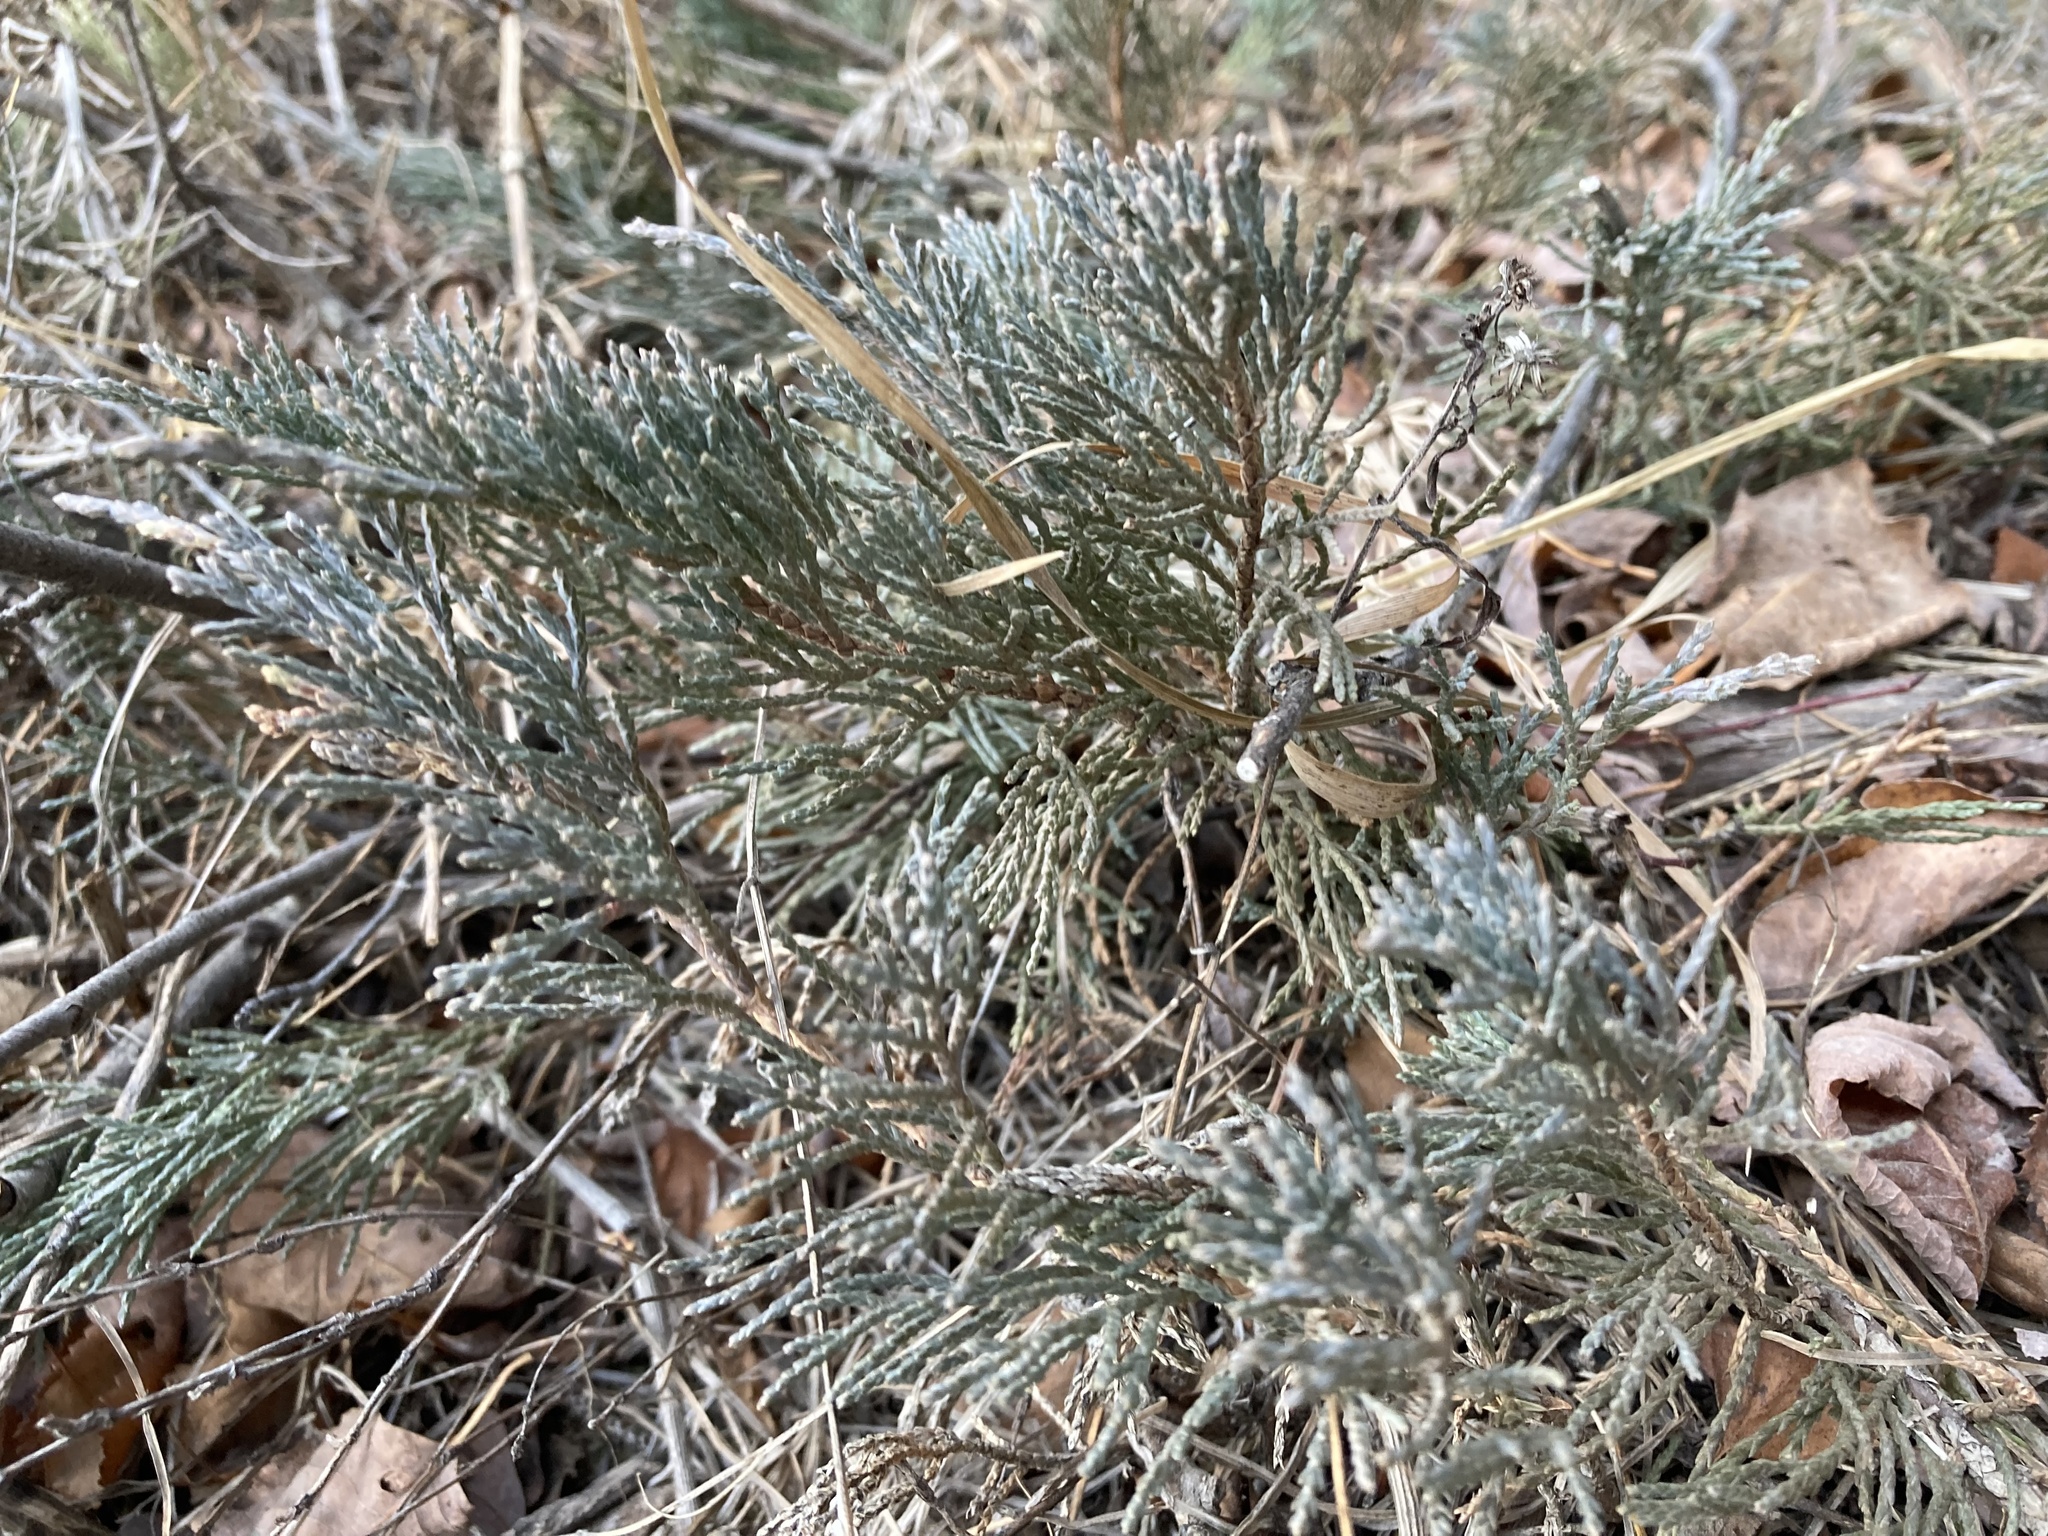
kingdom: Plantae
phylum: Tracheophyta
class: Pinopsida
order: Pinales
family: Cupressaceae
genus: Juniperus
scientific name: Juniperus horizontalis
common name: Creeping juniper
